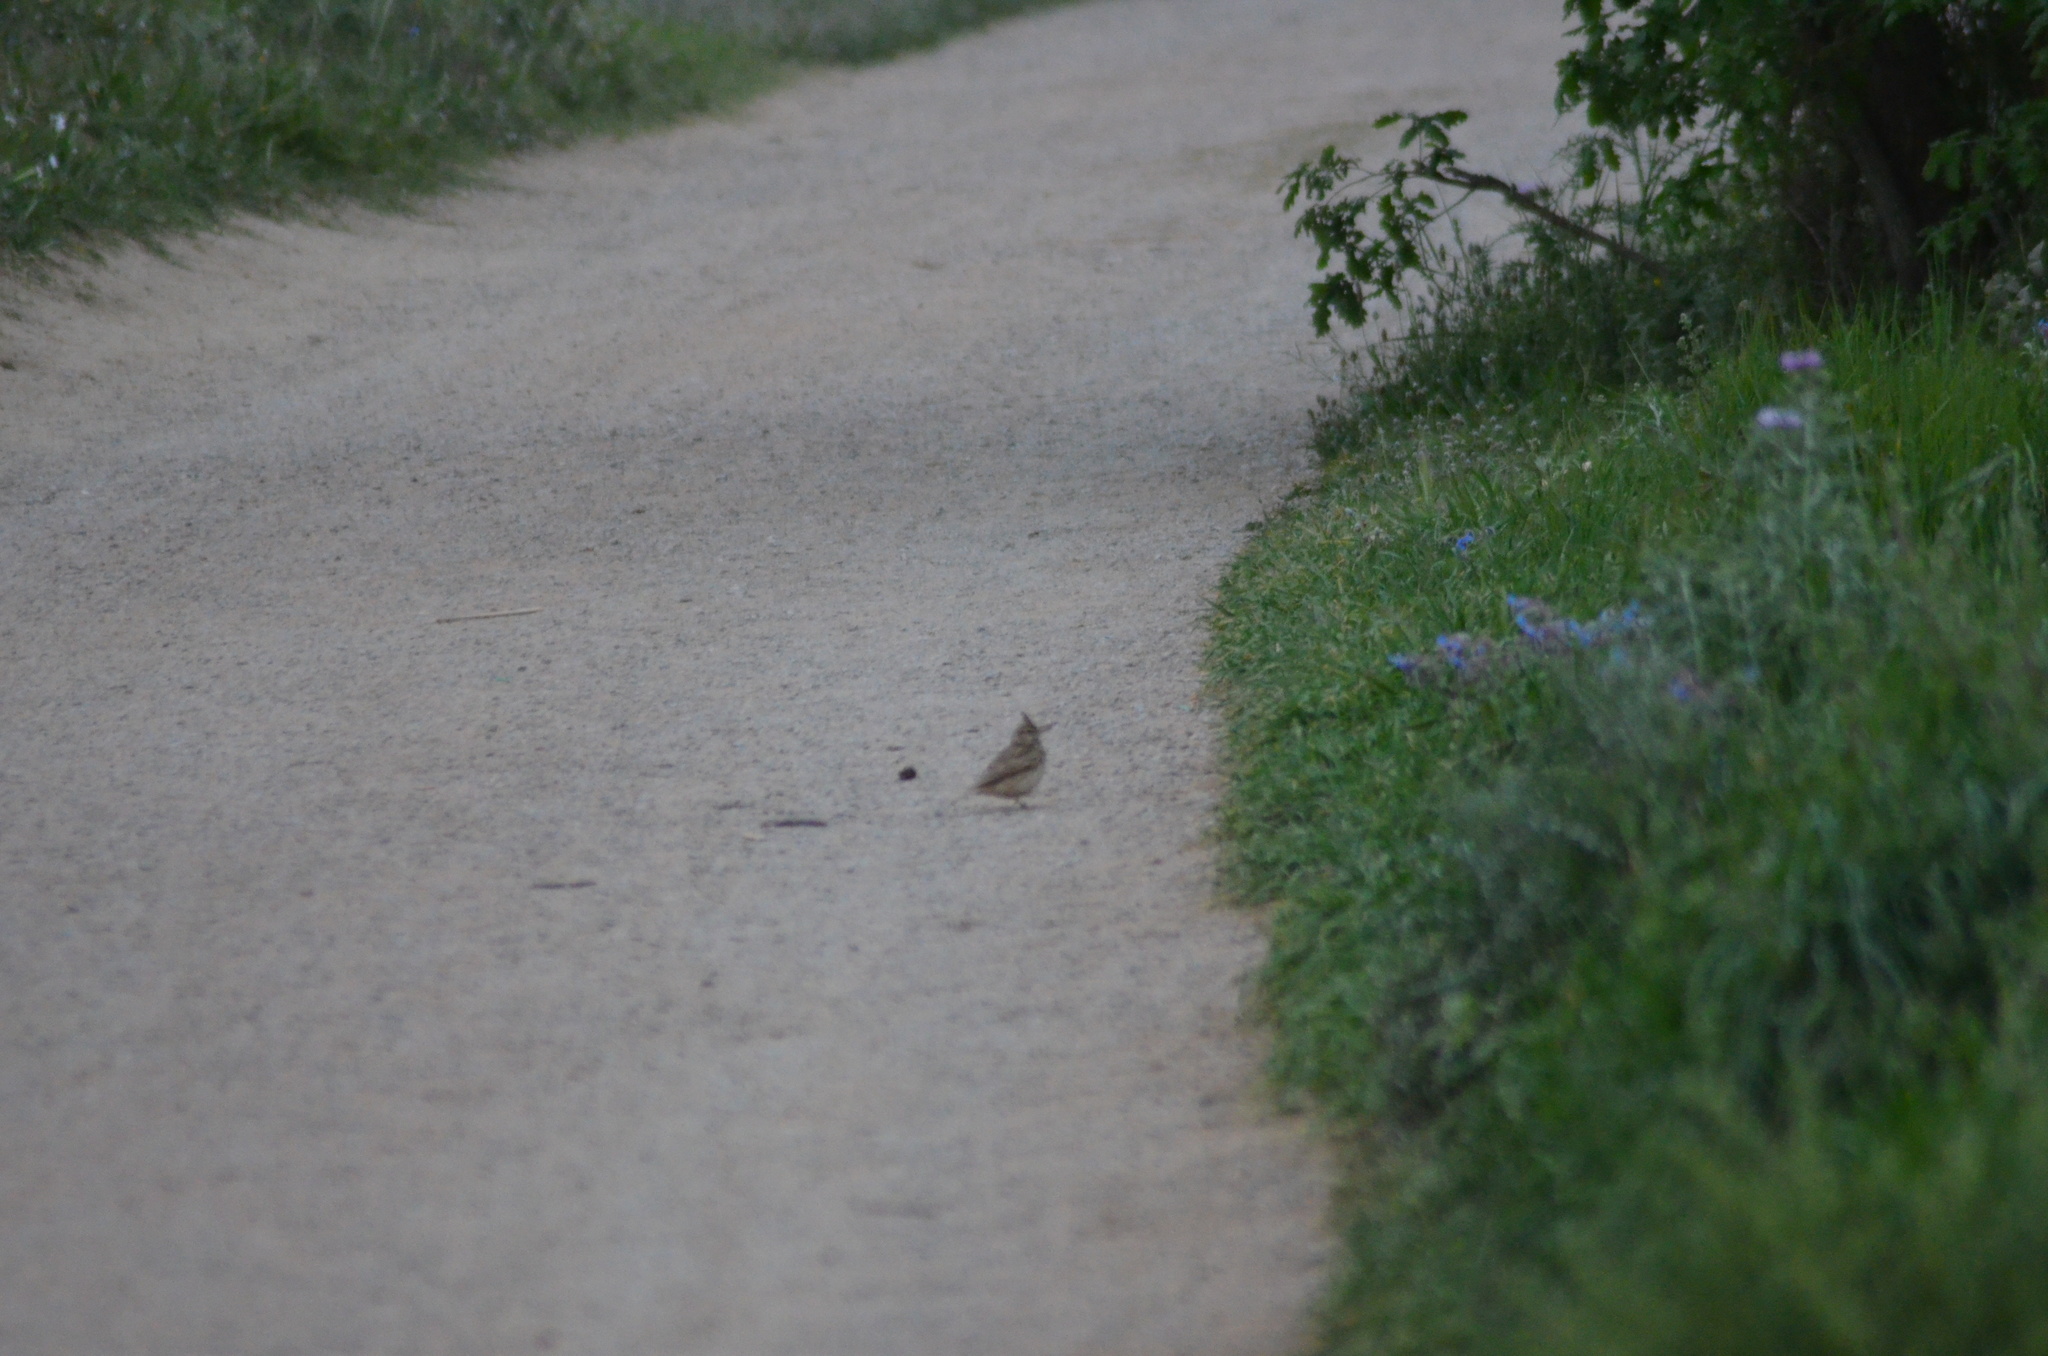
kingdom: Animalia
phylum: Chordata
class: Aves
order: Passeriformes
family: Alaudidae
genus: Galerida
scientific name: Galerida cristata
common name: Crested lark
